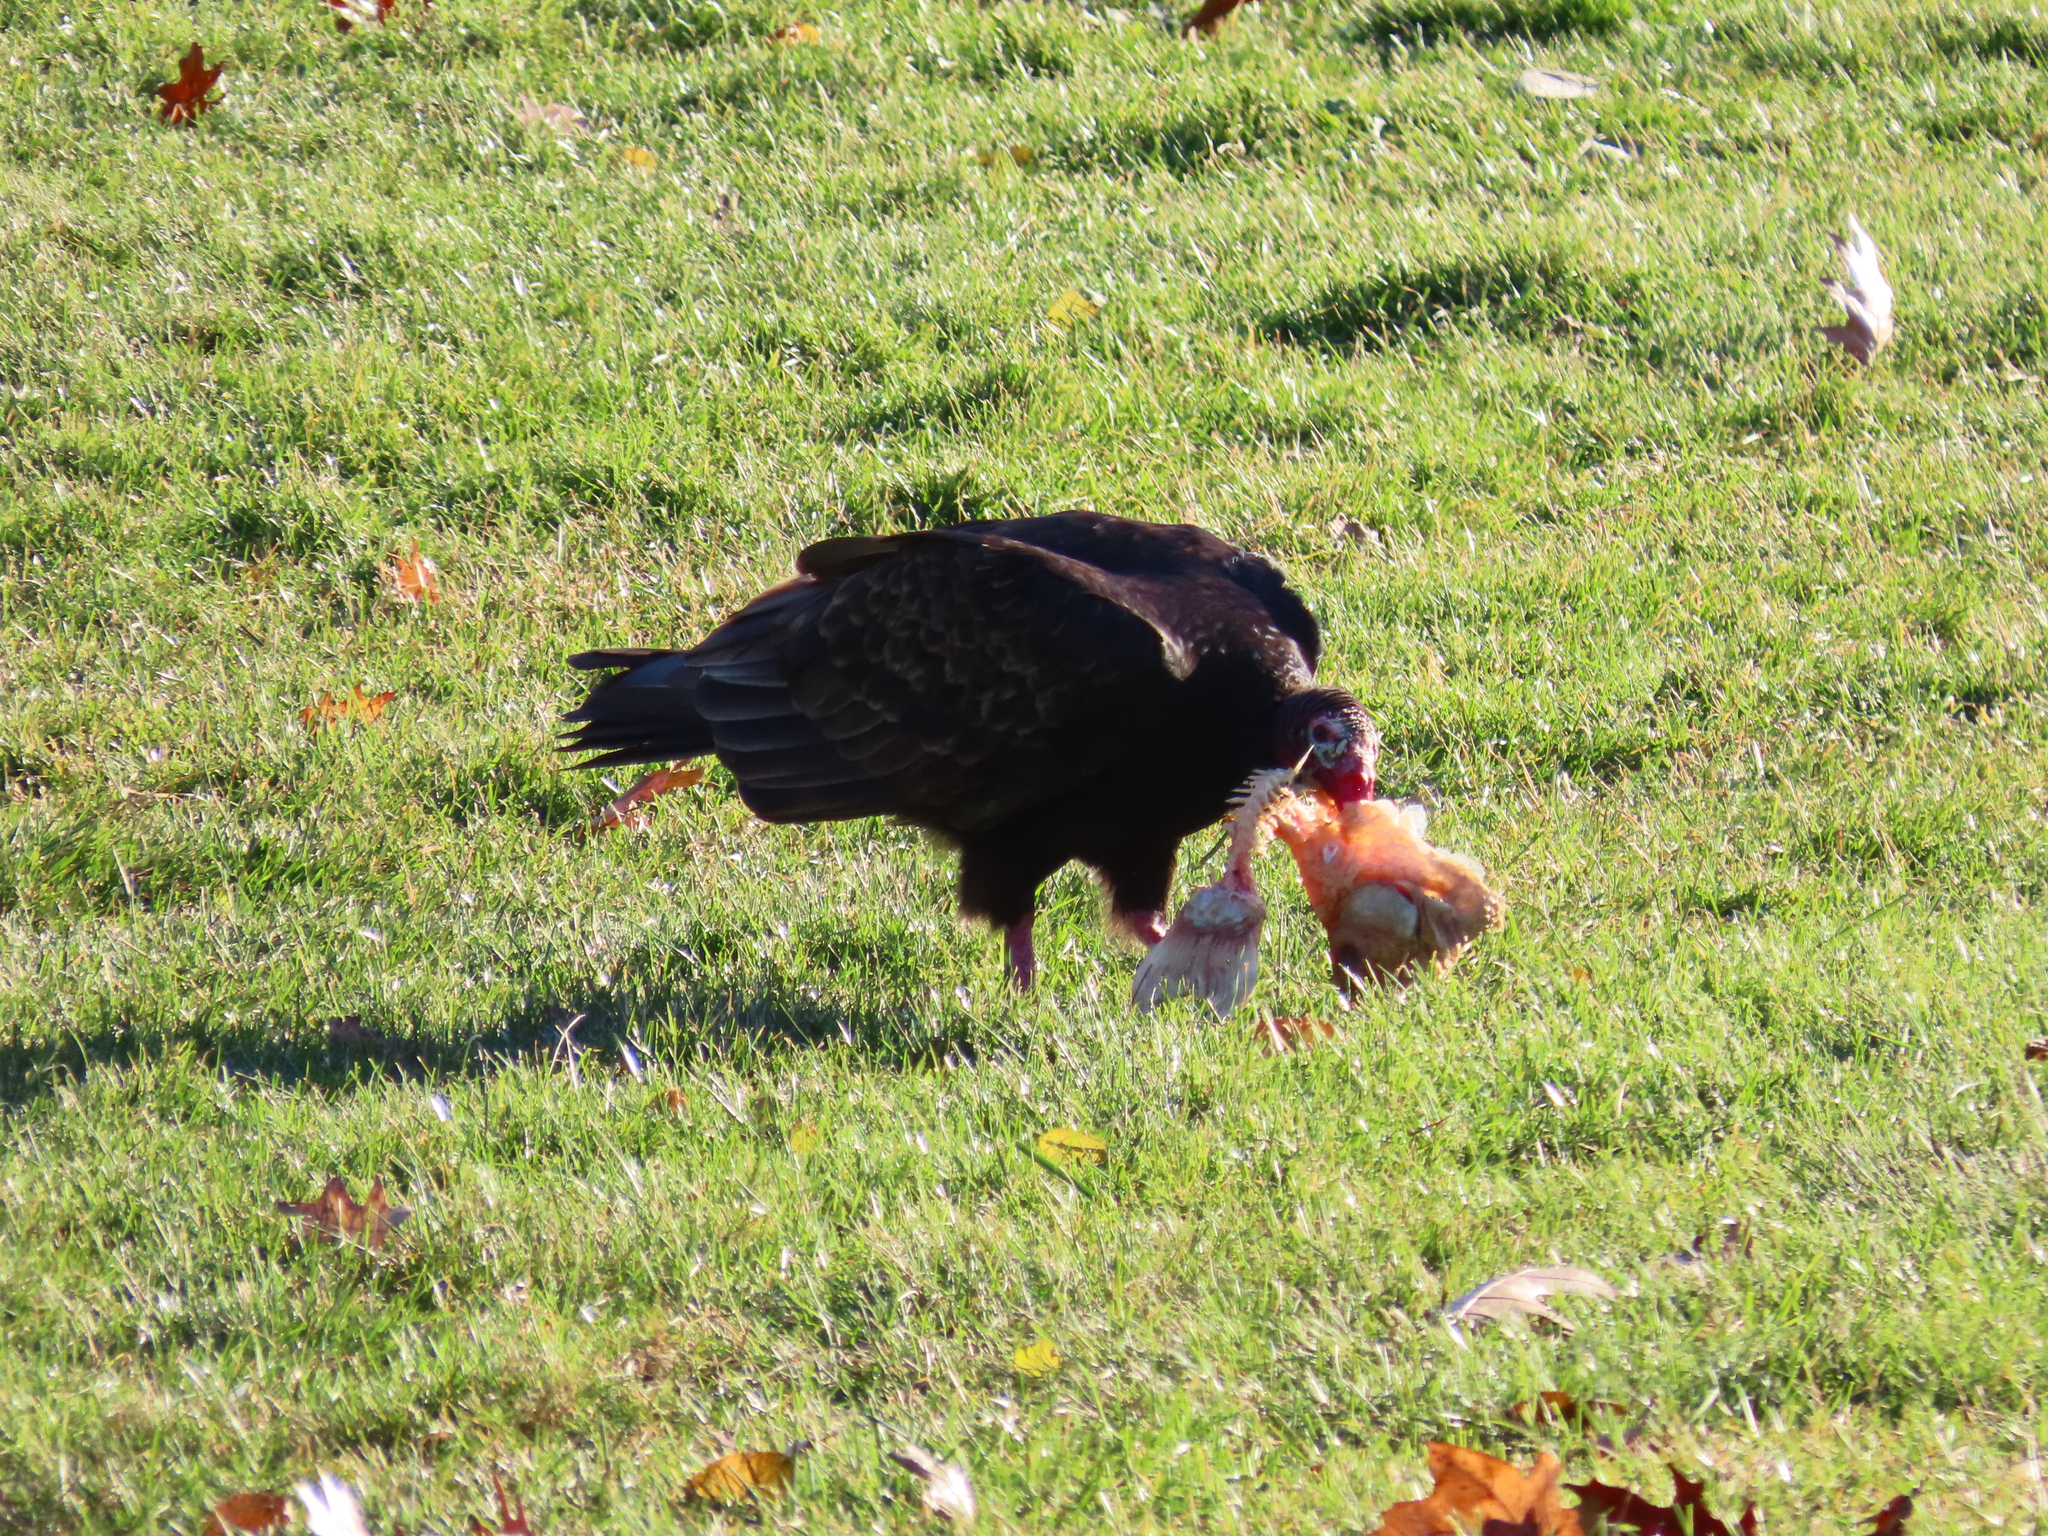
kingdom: Animalia
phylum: Chordata
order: Cypriniformes
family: Cyprinidae
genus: Carassius
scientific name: Carassius auratus
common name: Goldfish
